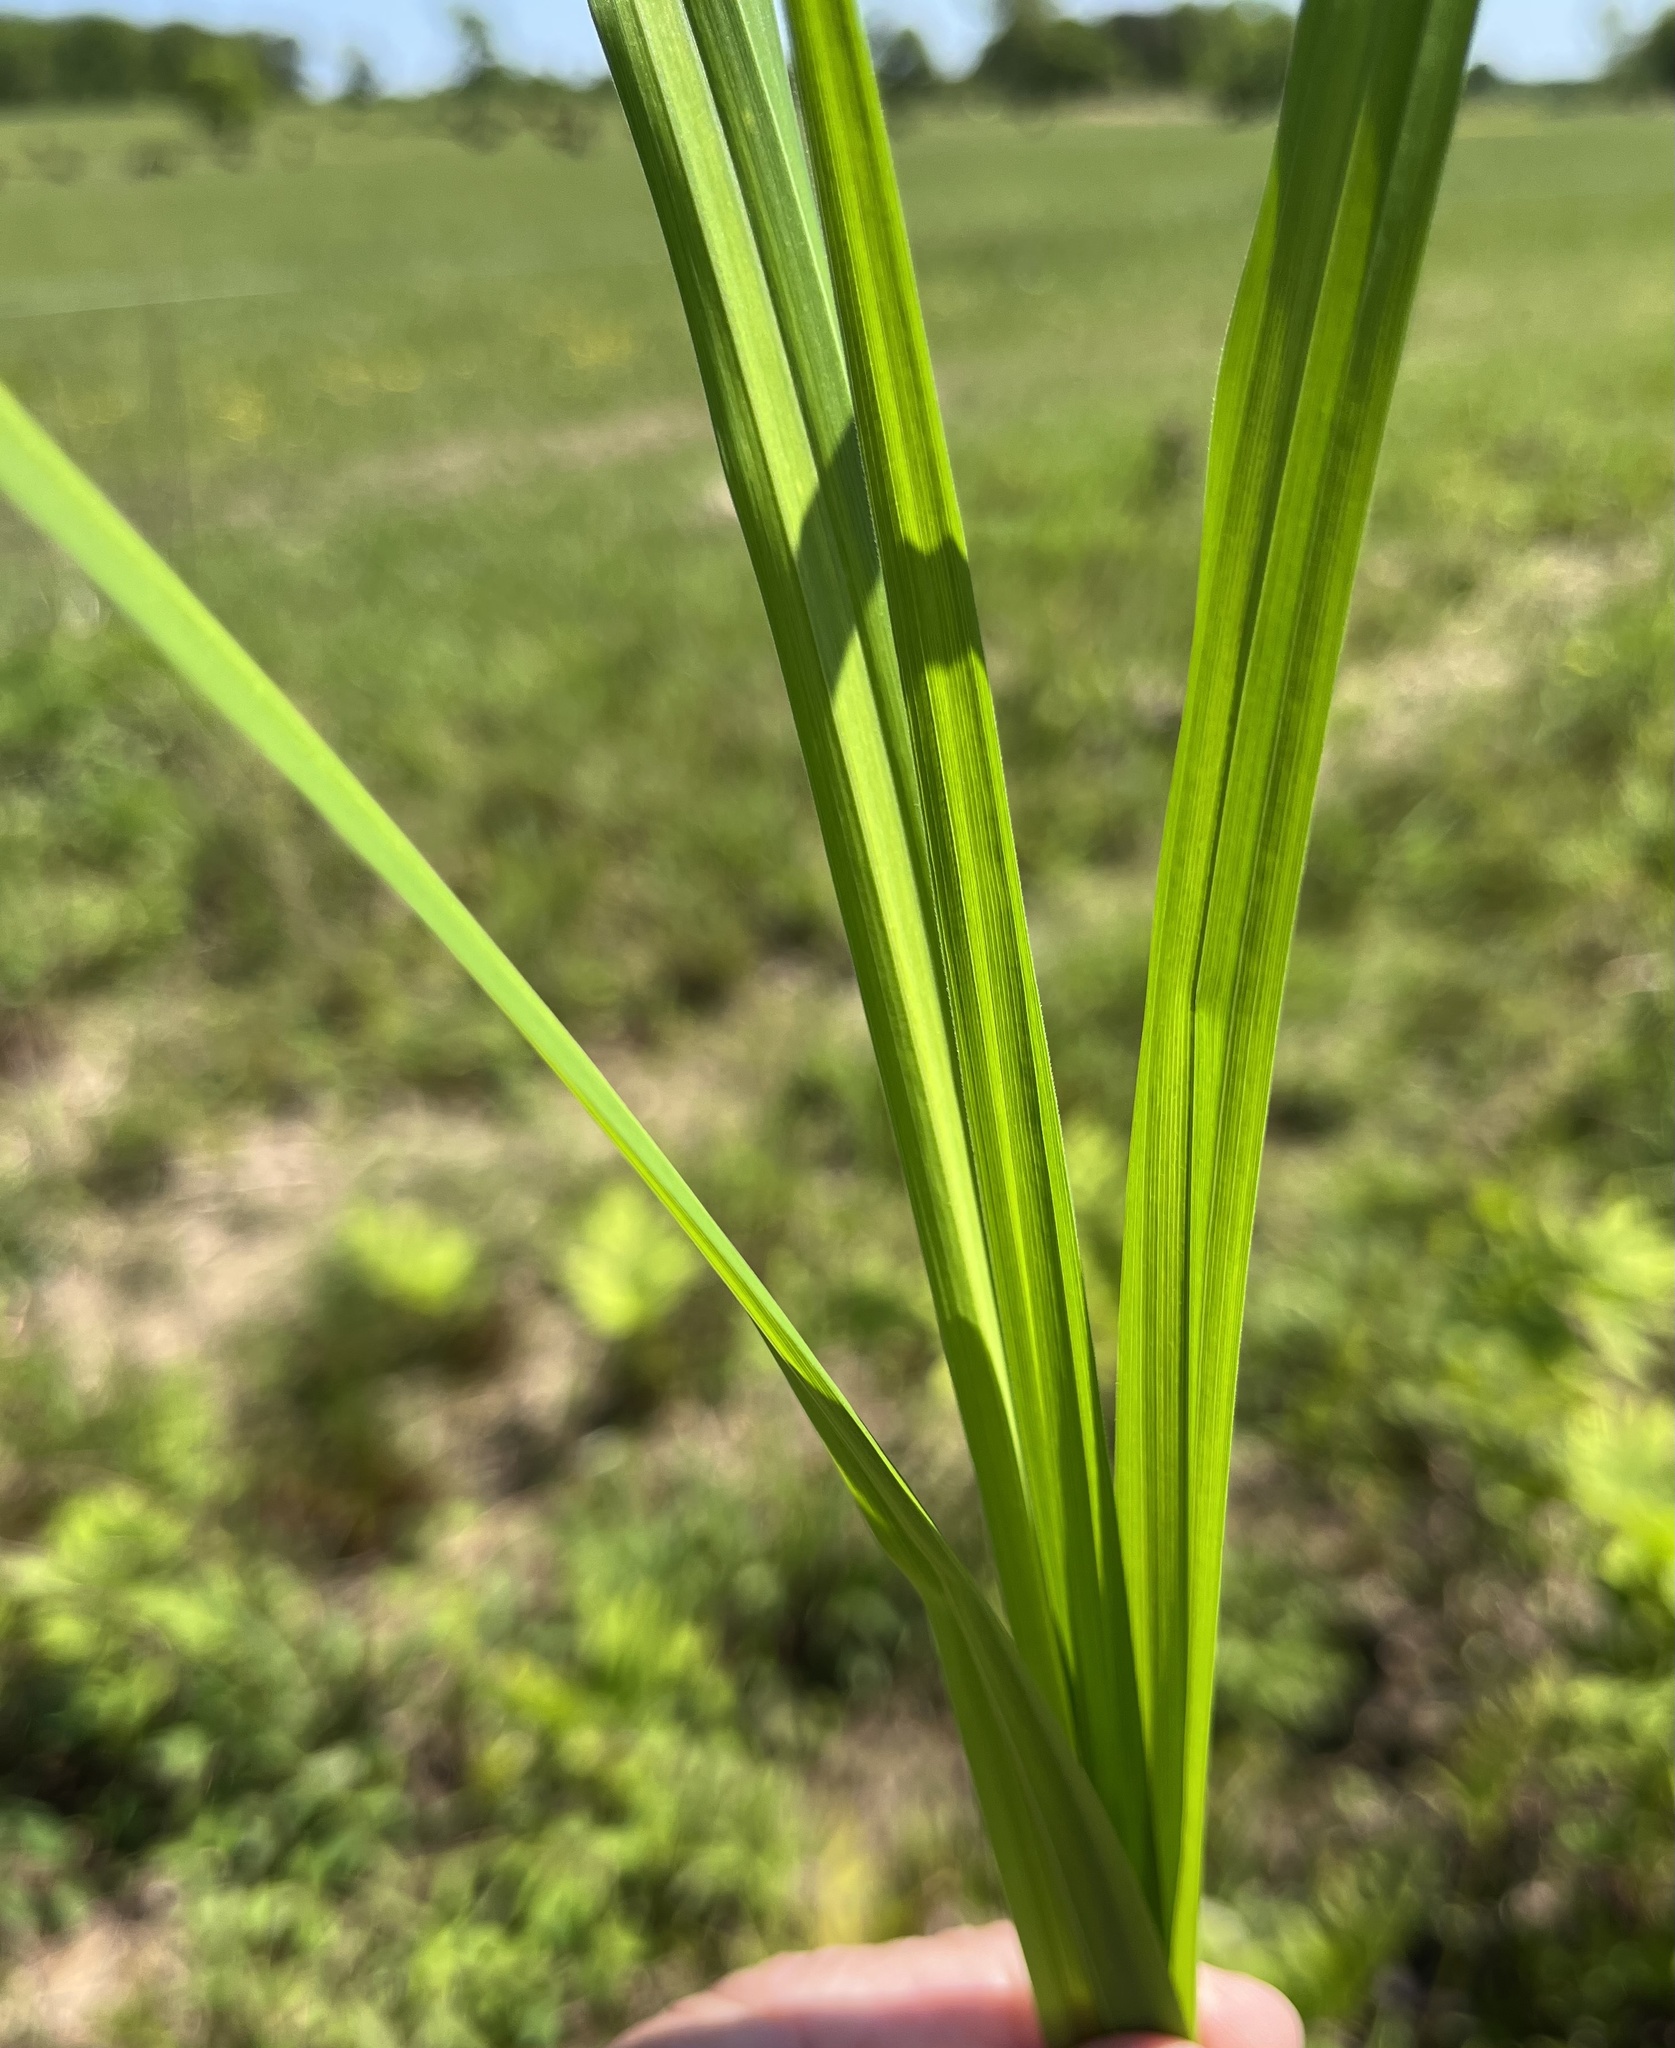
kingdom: Plantae
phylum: Tracheophyta
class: Liliopsida
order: Poales
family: Cyperaceae
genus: Carex
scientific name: Carex crinita
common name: Fringed sedge
